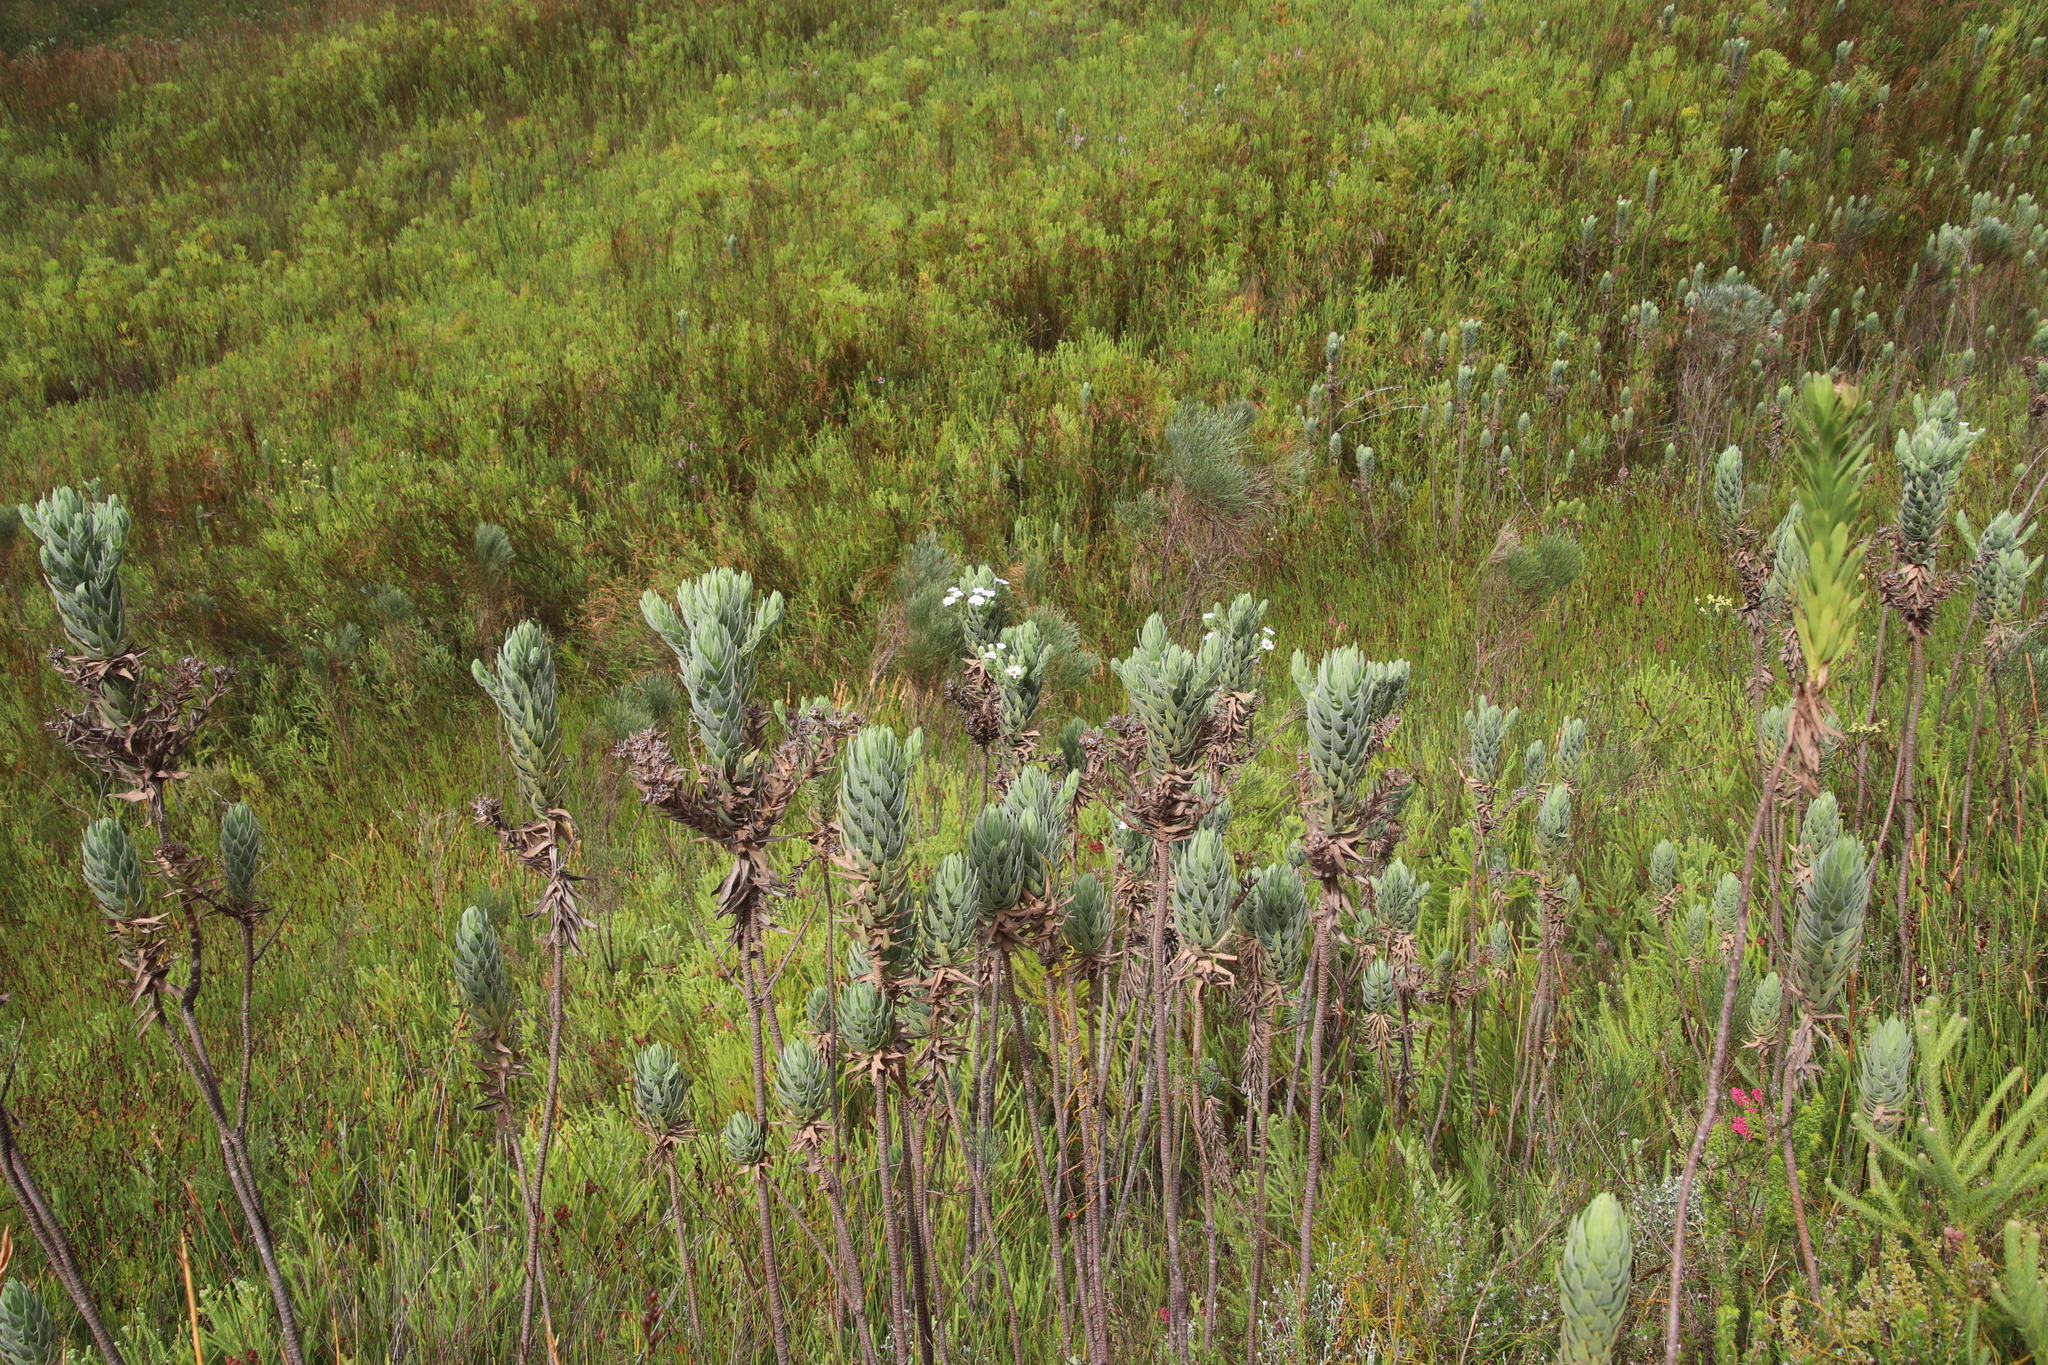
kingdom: Plantae
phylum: Tracheophyta
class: Magnoliopsida
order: Asterales
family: Asteraceae
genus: Osmitopsis
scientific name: Osmitopsis asteriscoides
